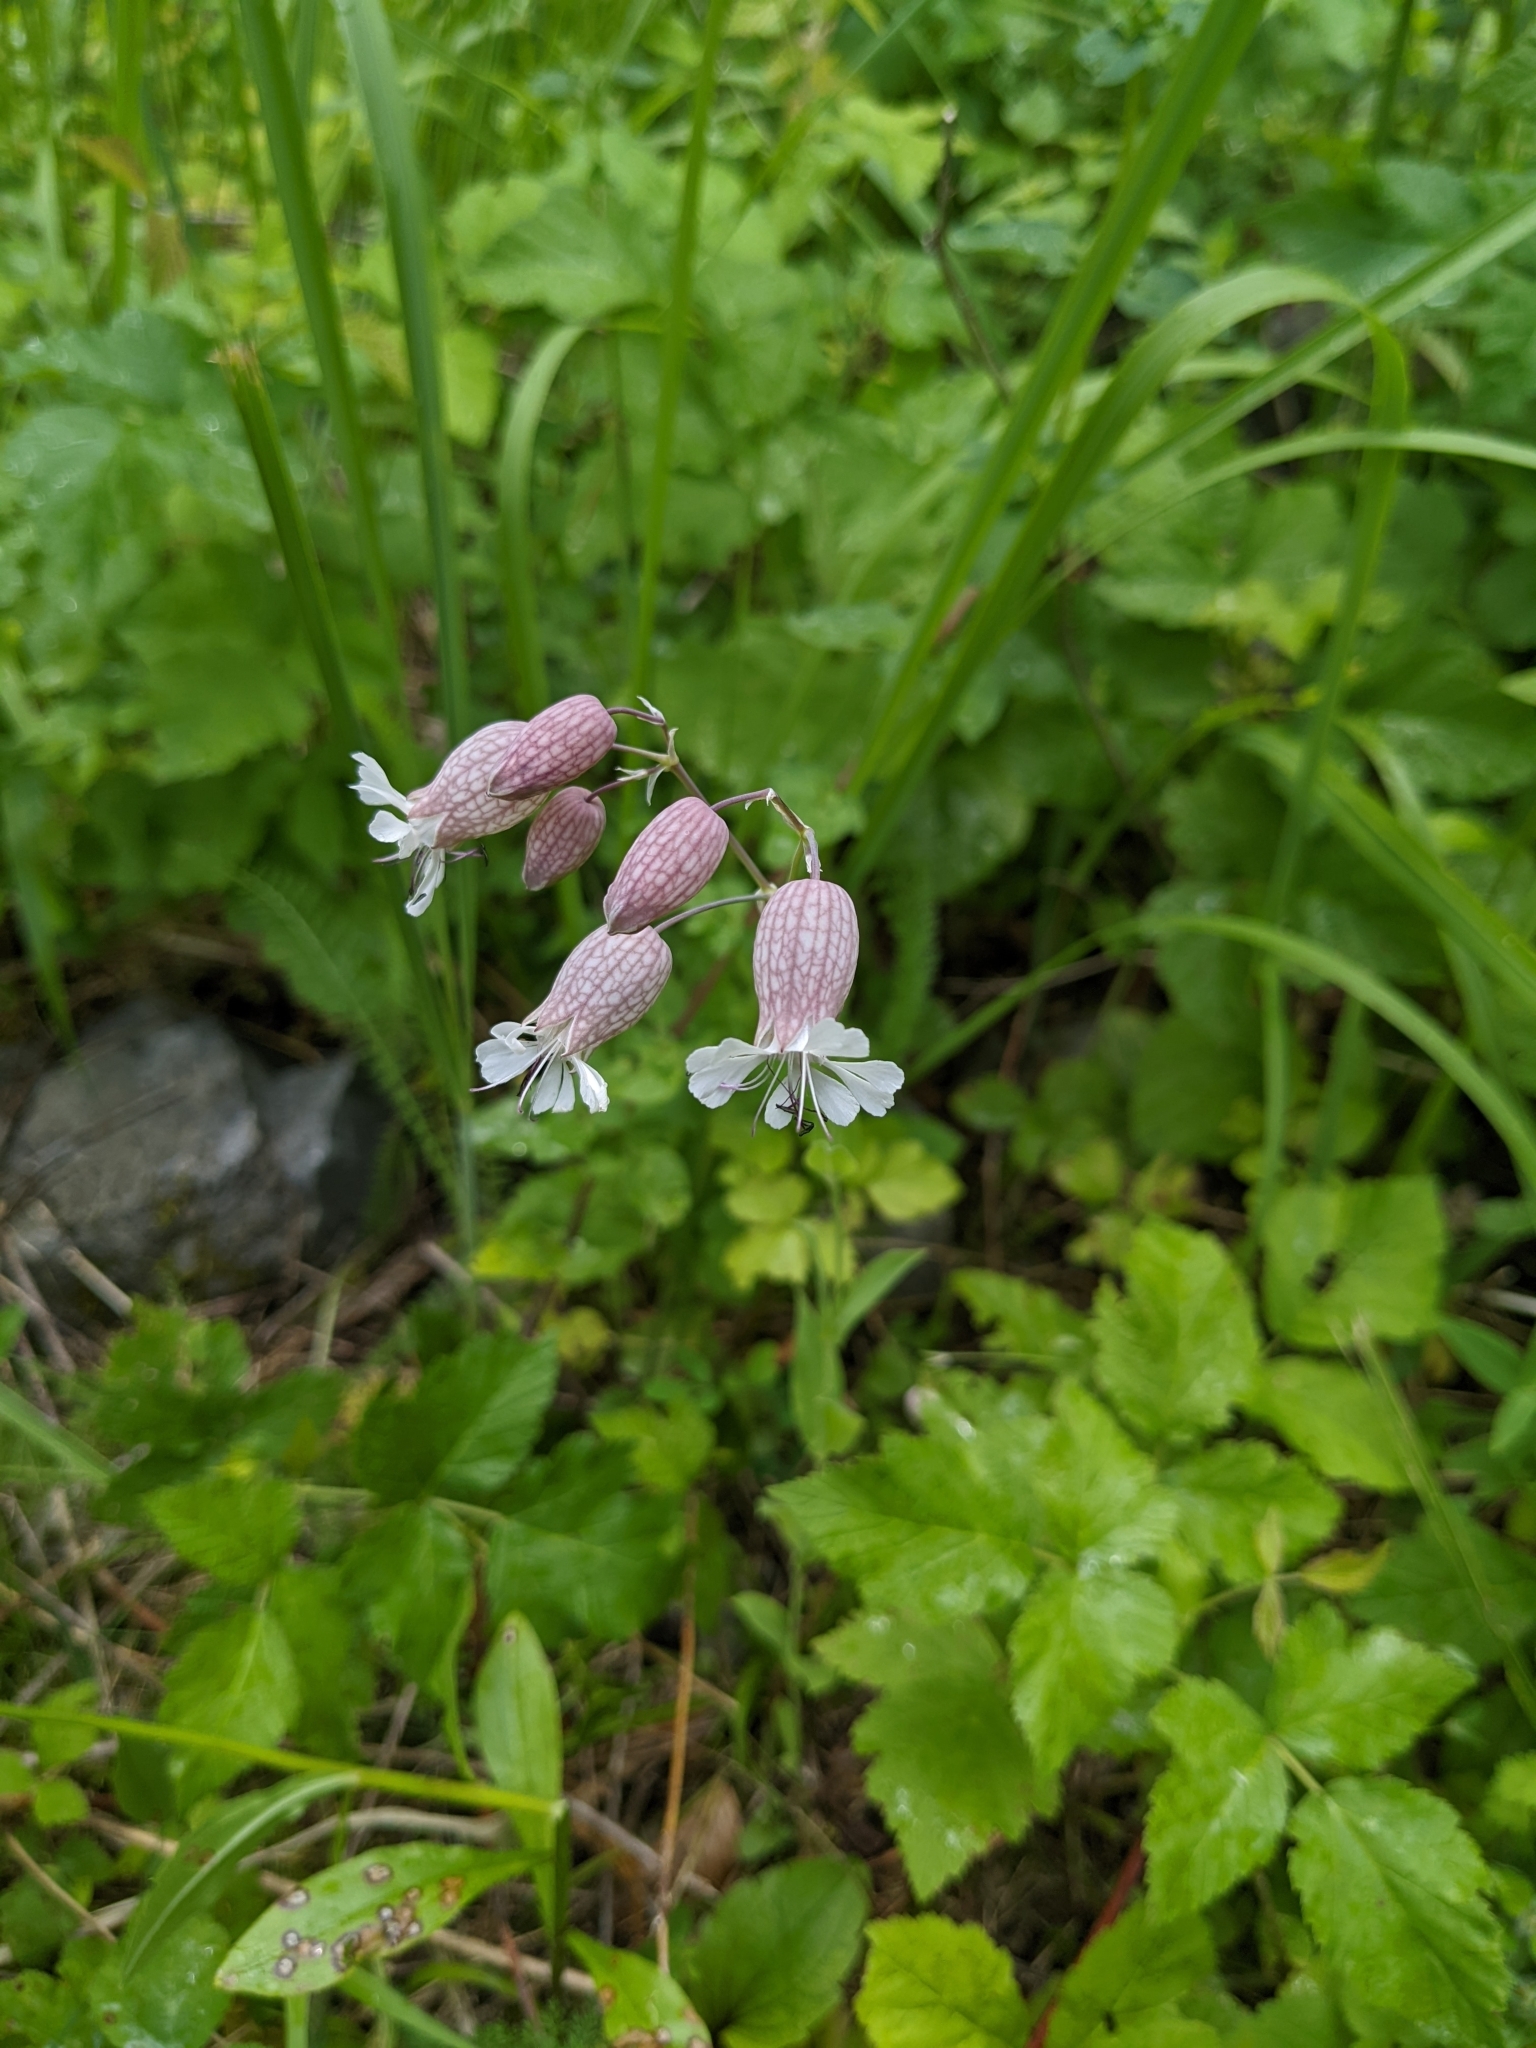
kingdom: Plantae
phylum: Tracheophyta
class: Magnoliopsida
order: Caryophyllales
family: Caryophyllaceae
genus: Silene
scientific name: Silene vulgaris
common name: Bladder campion
